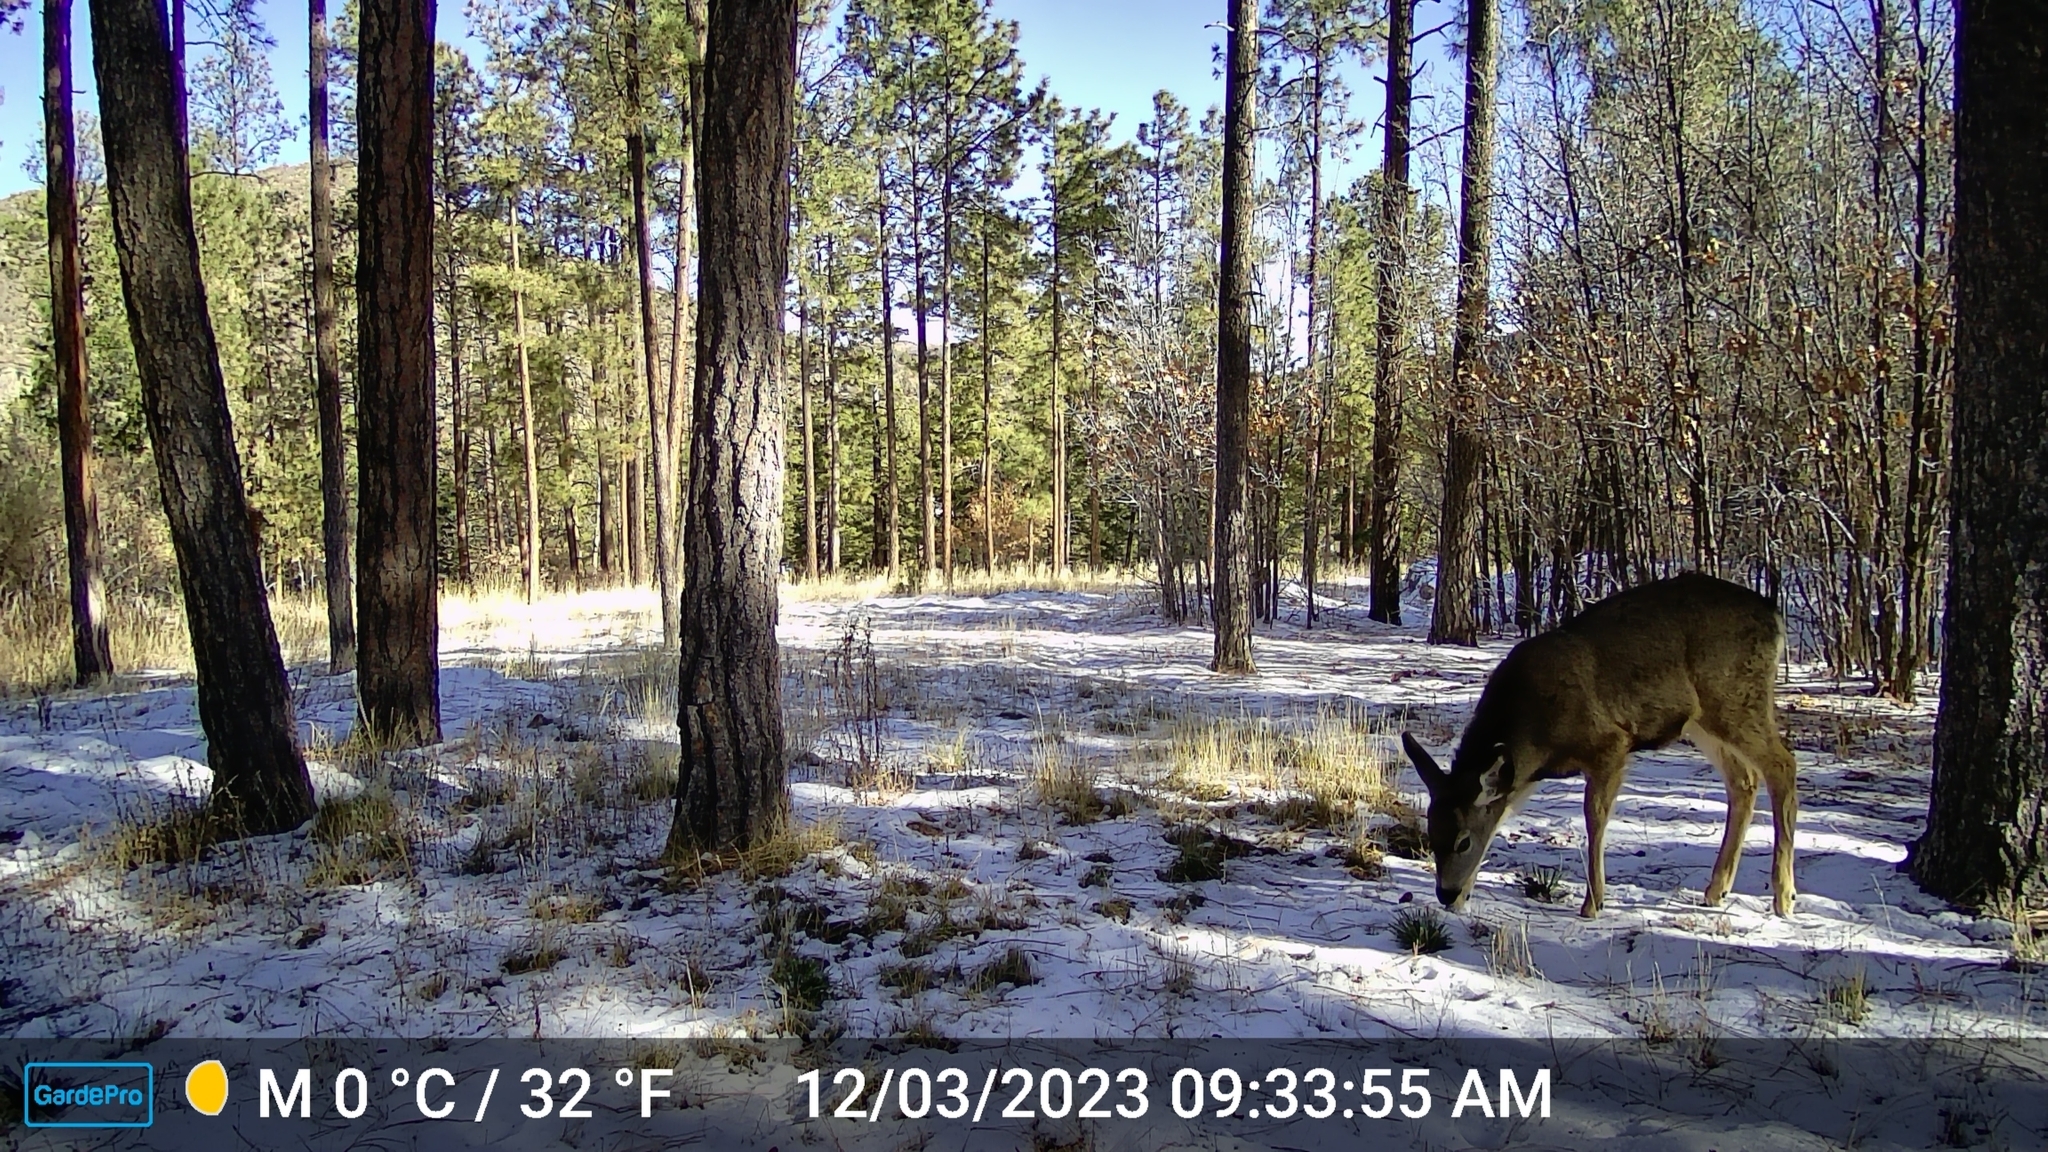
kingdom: Animalia
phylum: Chordata
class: Mammalia
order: Artiodactyla
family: Cervidae
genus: Odocoileus
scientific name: Odocoileus hemionus
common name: Mule deer
